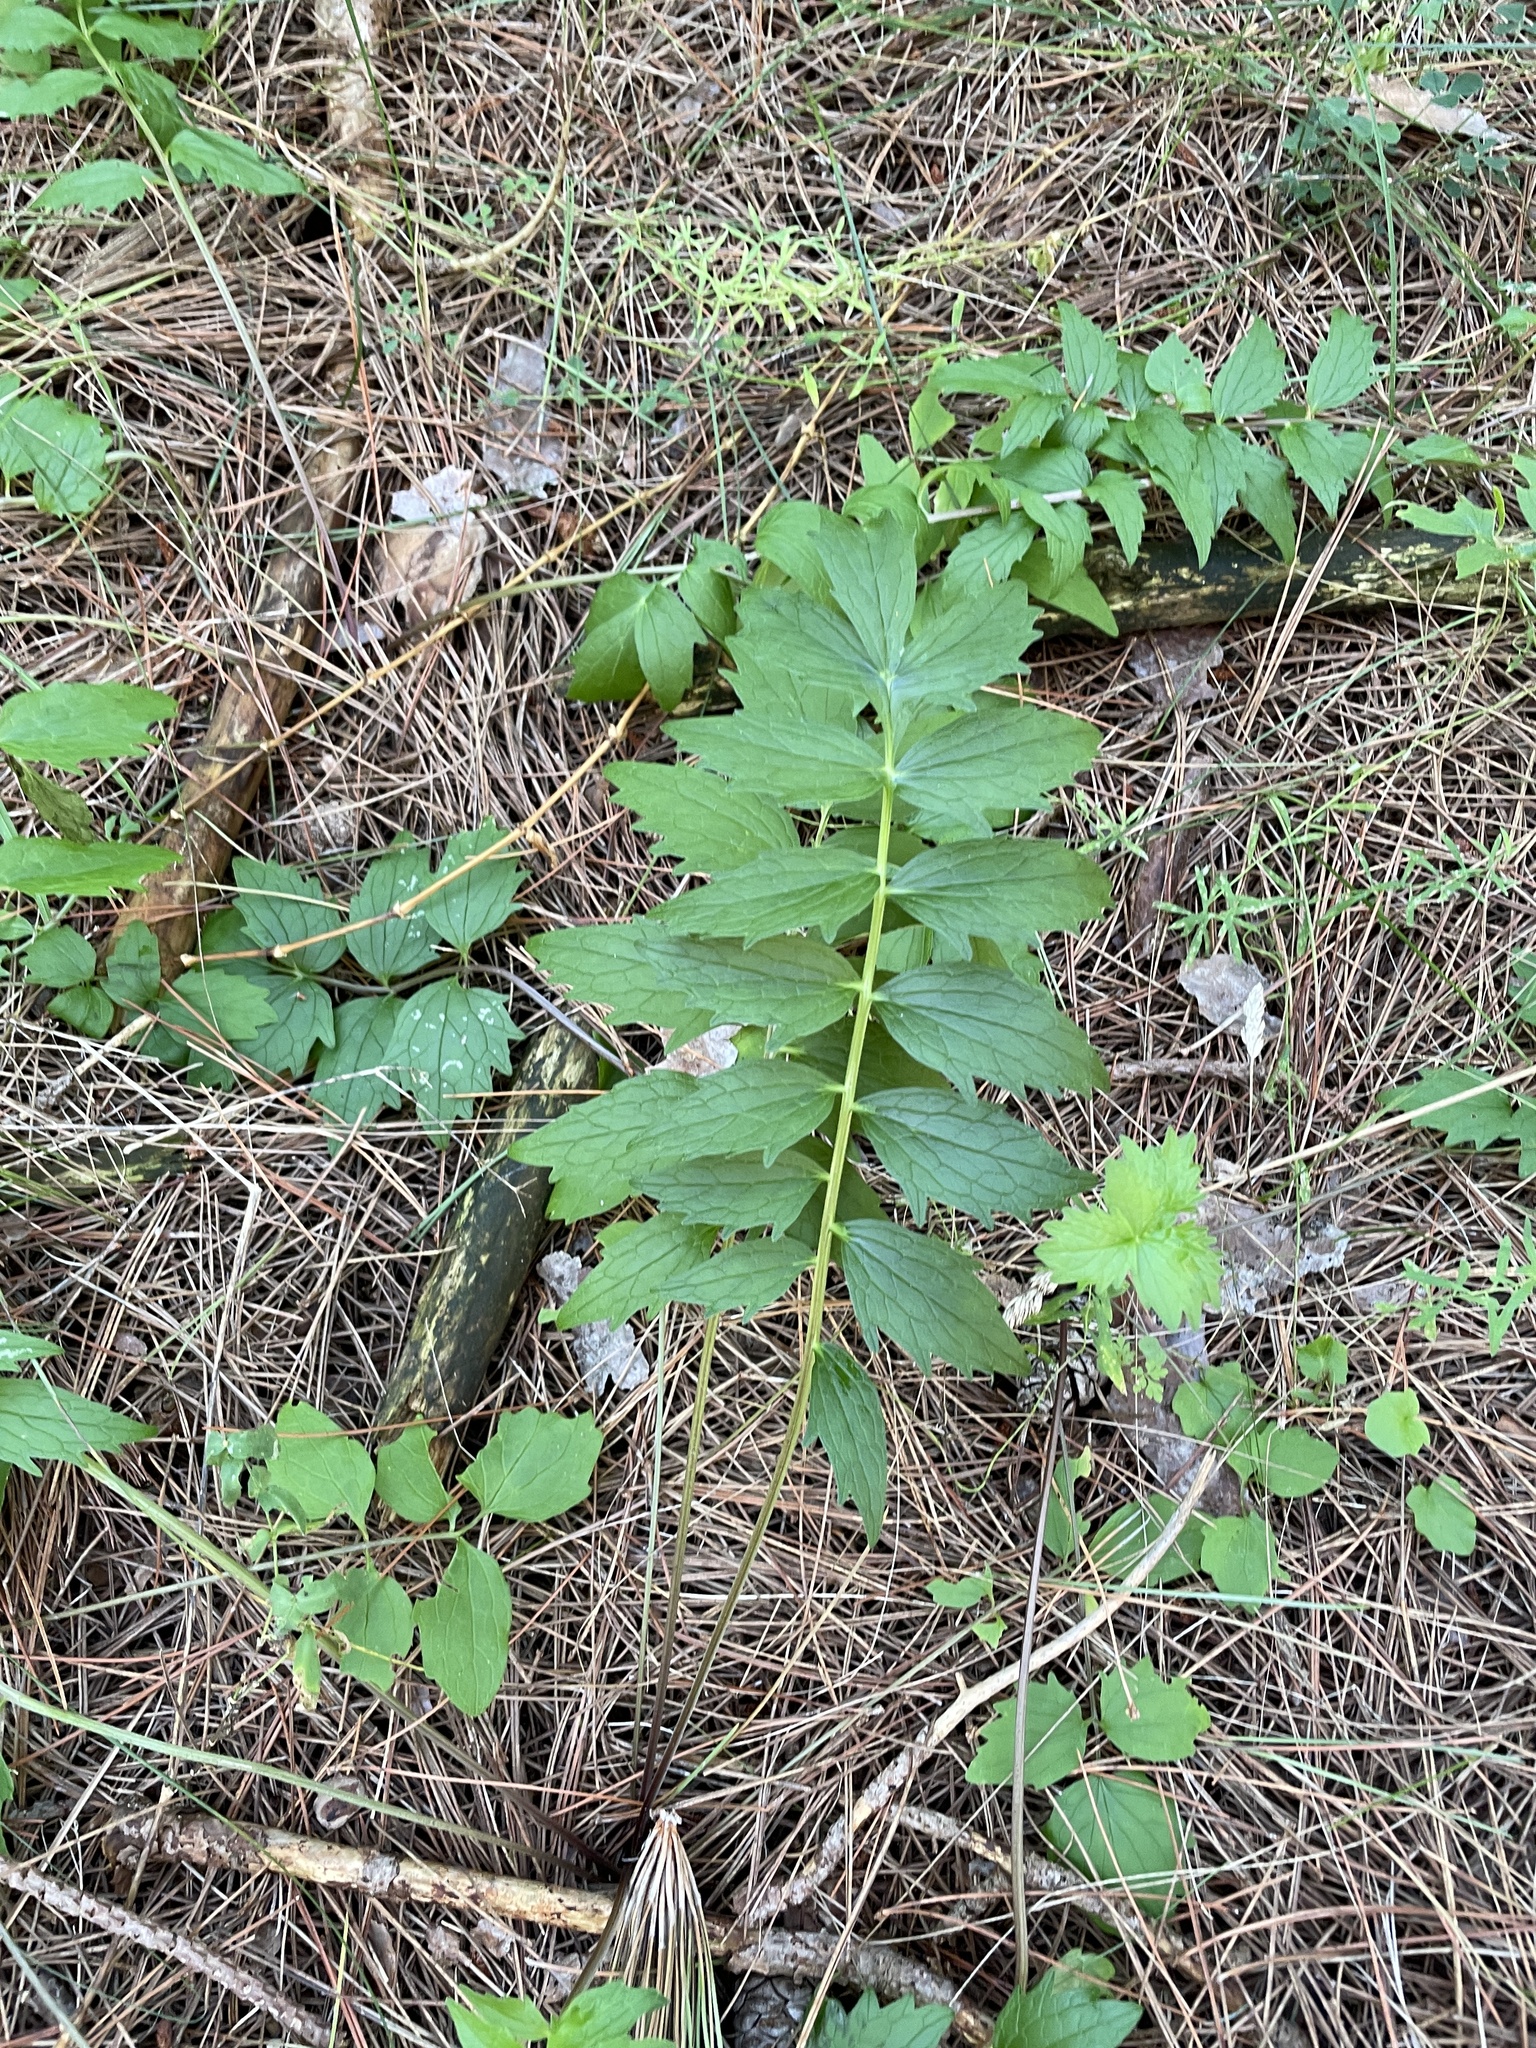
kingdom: Plantae
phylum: Tracheophyta
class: Magnoliopsida
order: Dipsacales
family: Caprifoliaceae
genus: Valeriana
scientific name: Valeriana officinalis
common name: Common valerian
